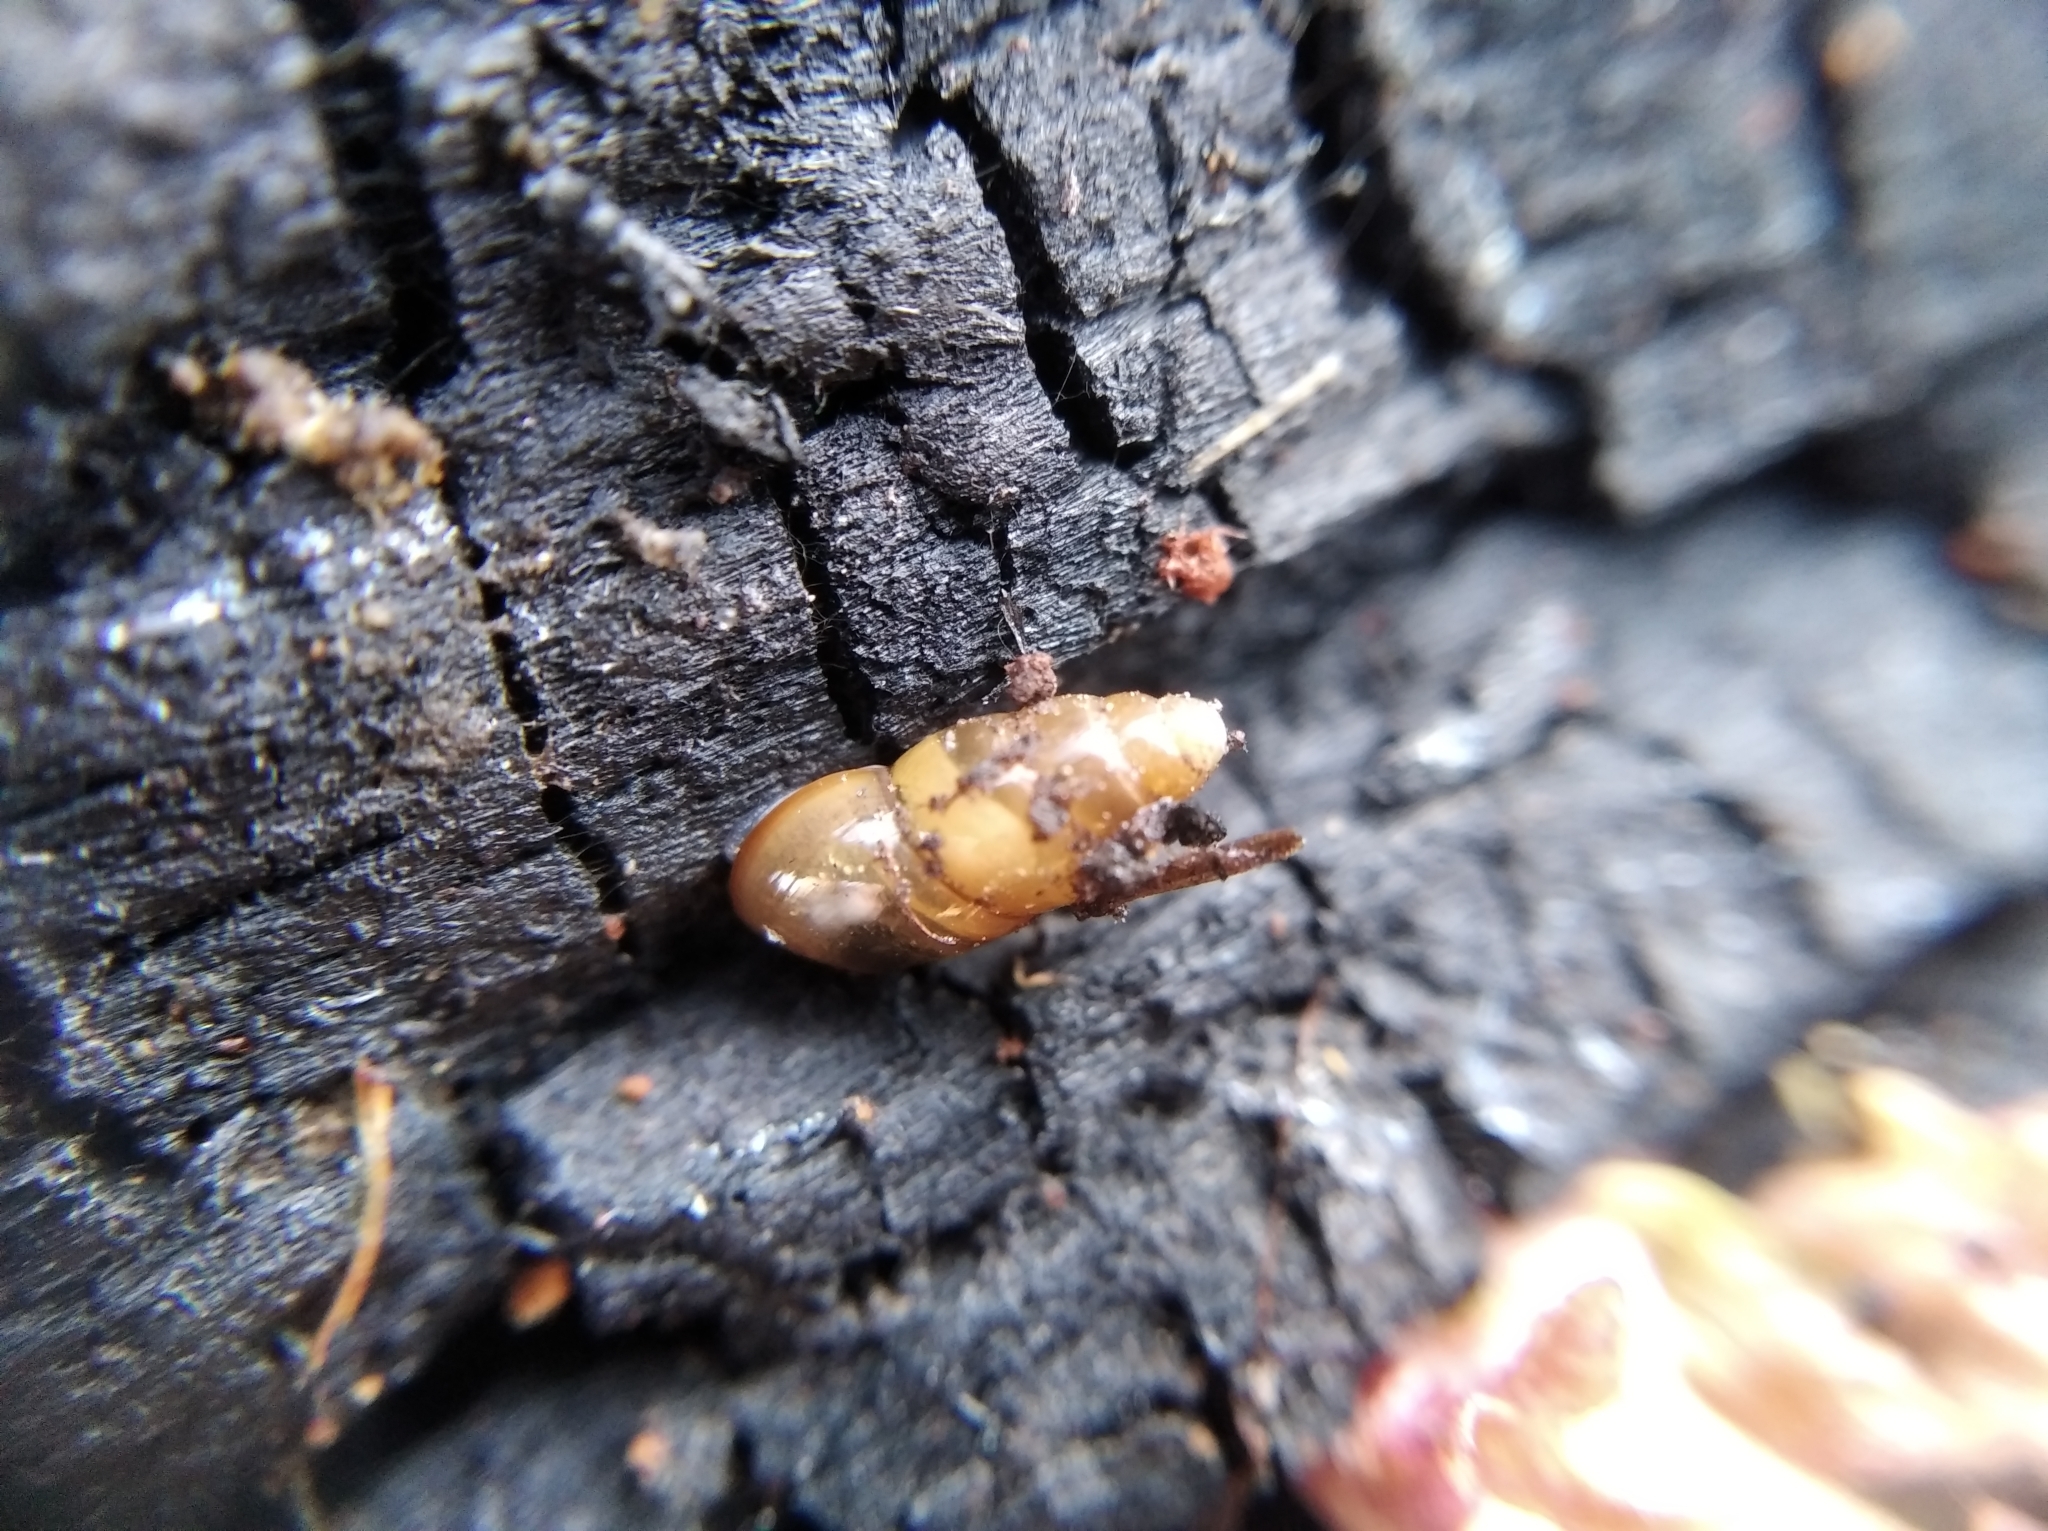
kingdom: Animalia
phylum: Mollusca
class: Gastropoda
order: Stylommatophora
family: Cochlicopidae
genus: Cochlicopa
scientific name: Cochlicopa lubricella
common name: Lesser slippery moss snail
